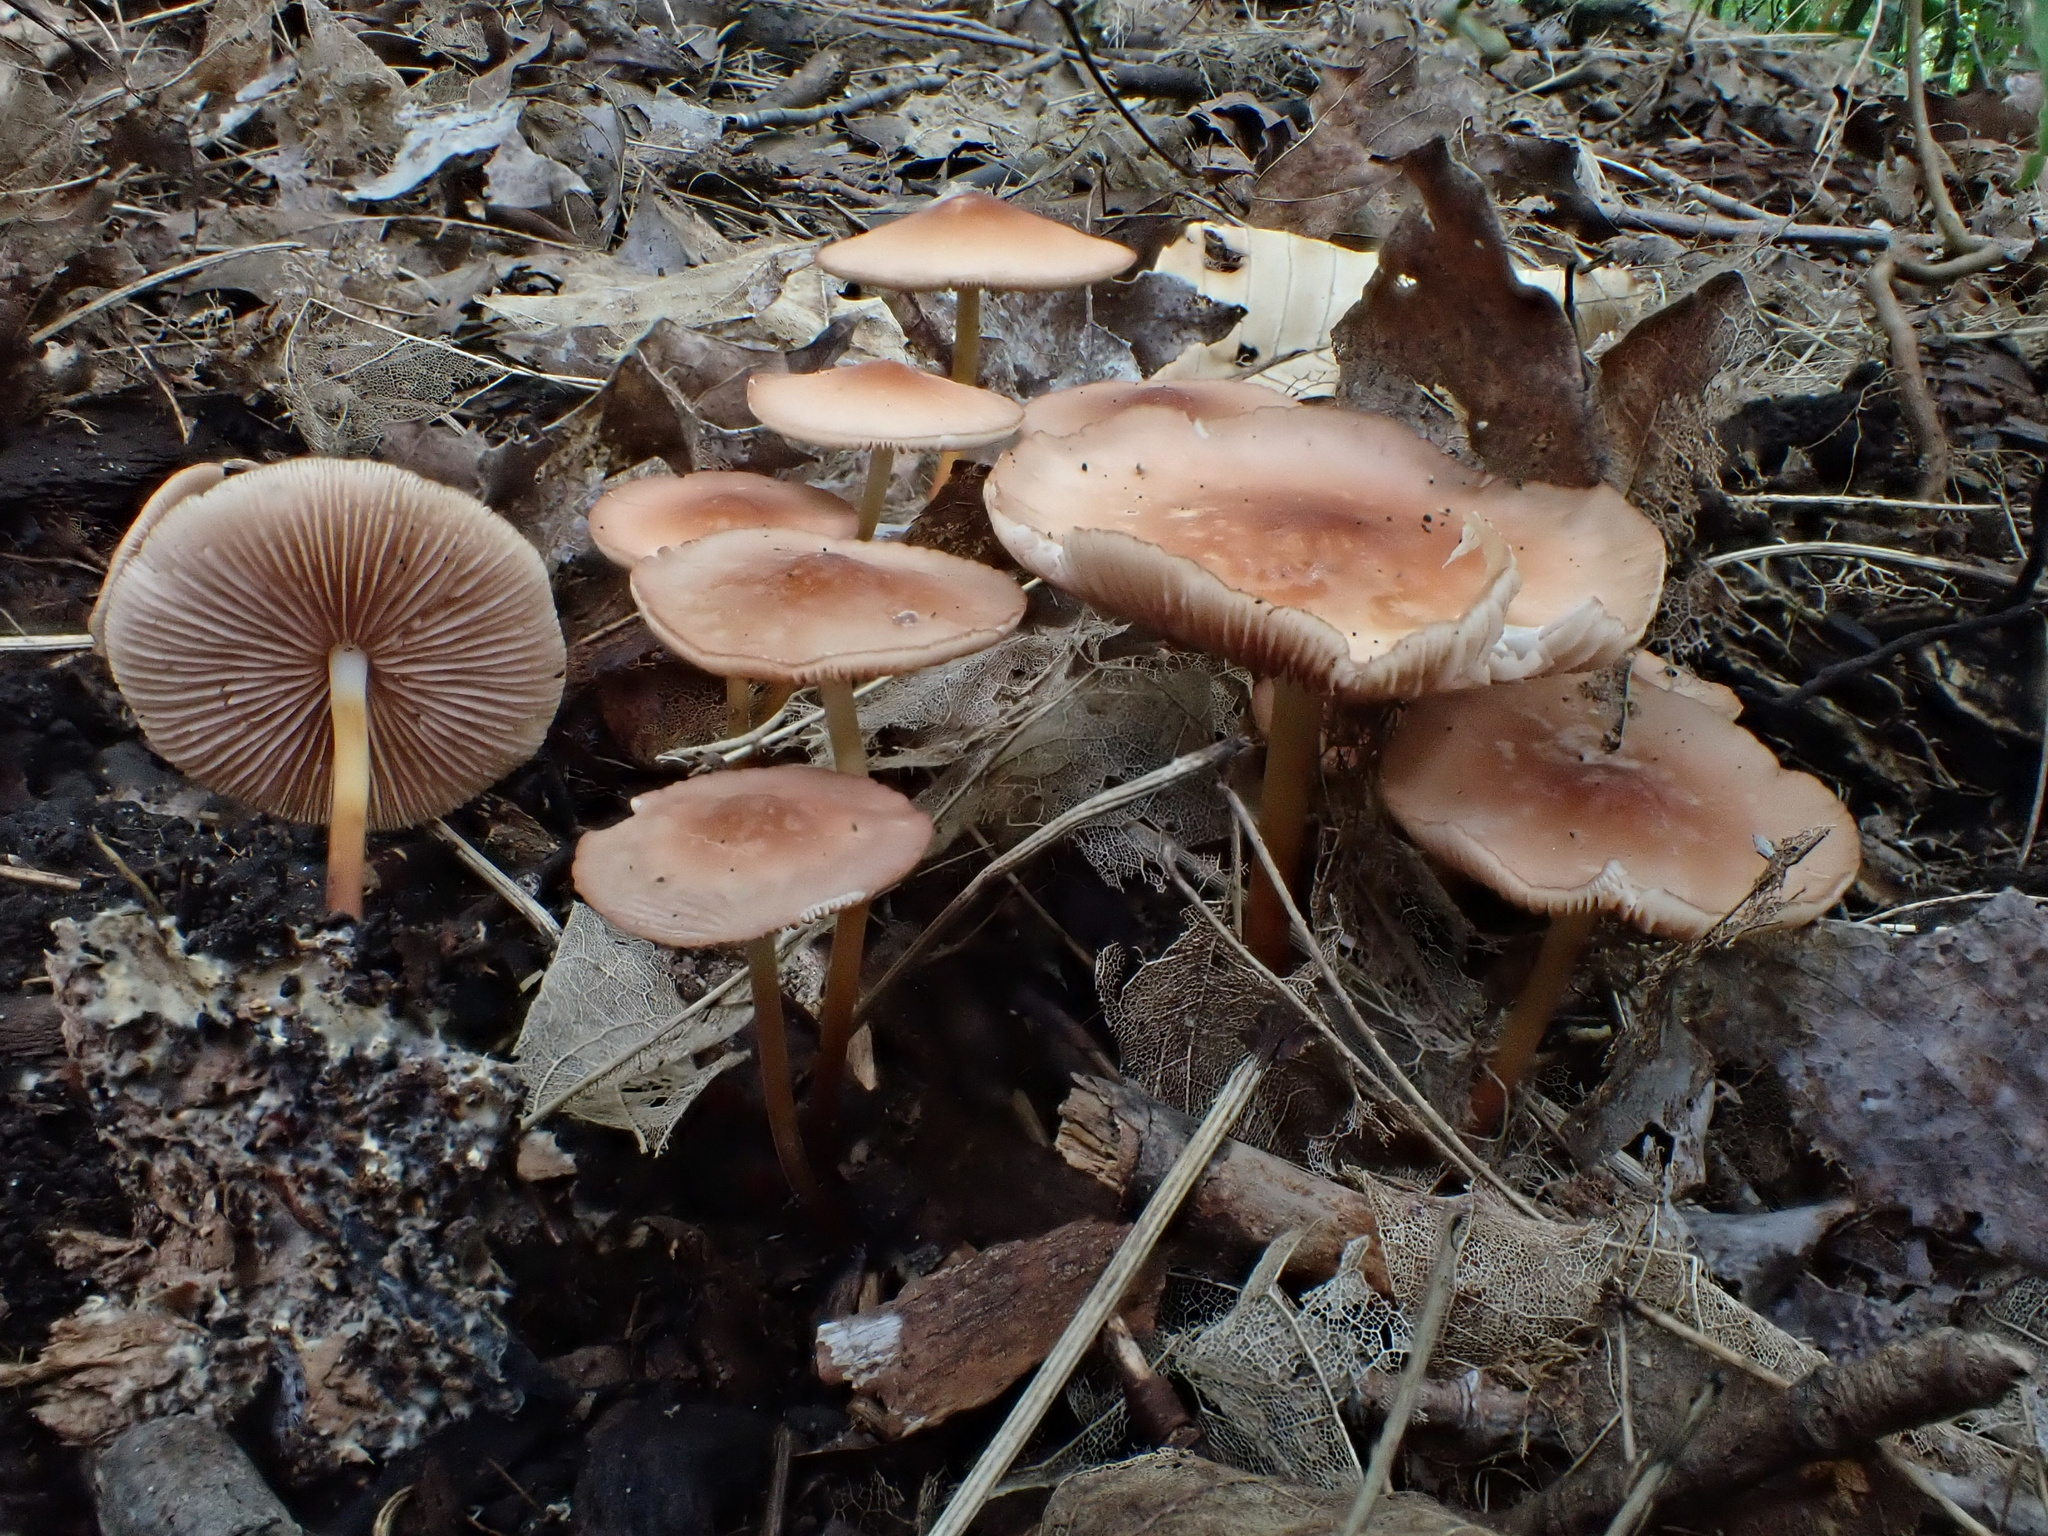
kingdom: Fungi
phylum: Basidiomycota
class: Agaricomycetes
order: Agaricales
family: Marasmiaceae
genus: Marasmius
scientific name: Marasmius cohaerens
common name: Bristled parachute
